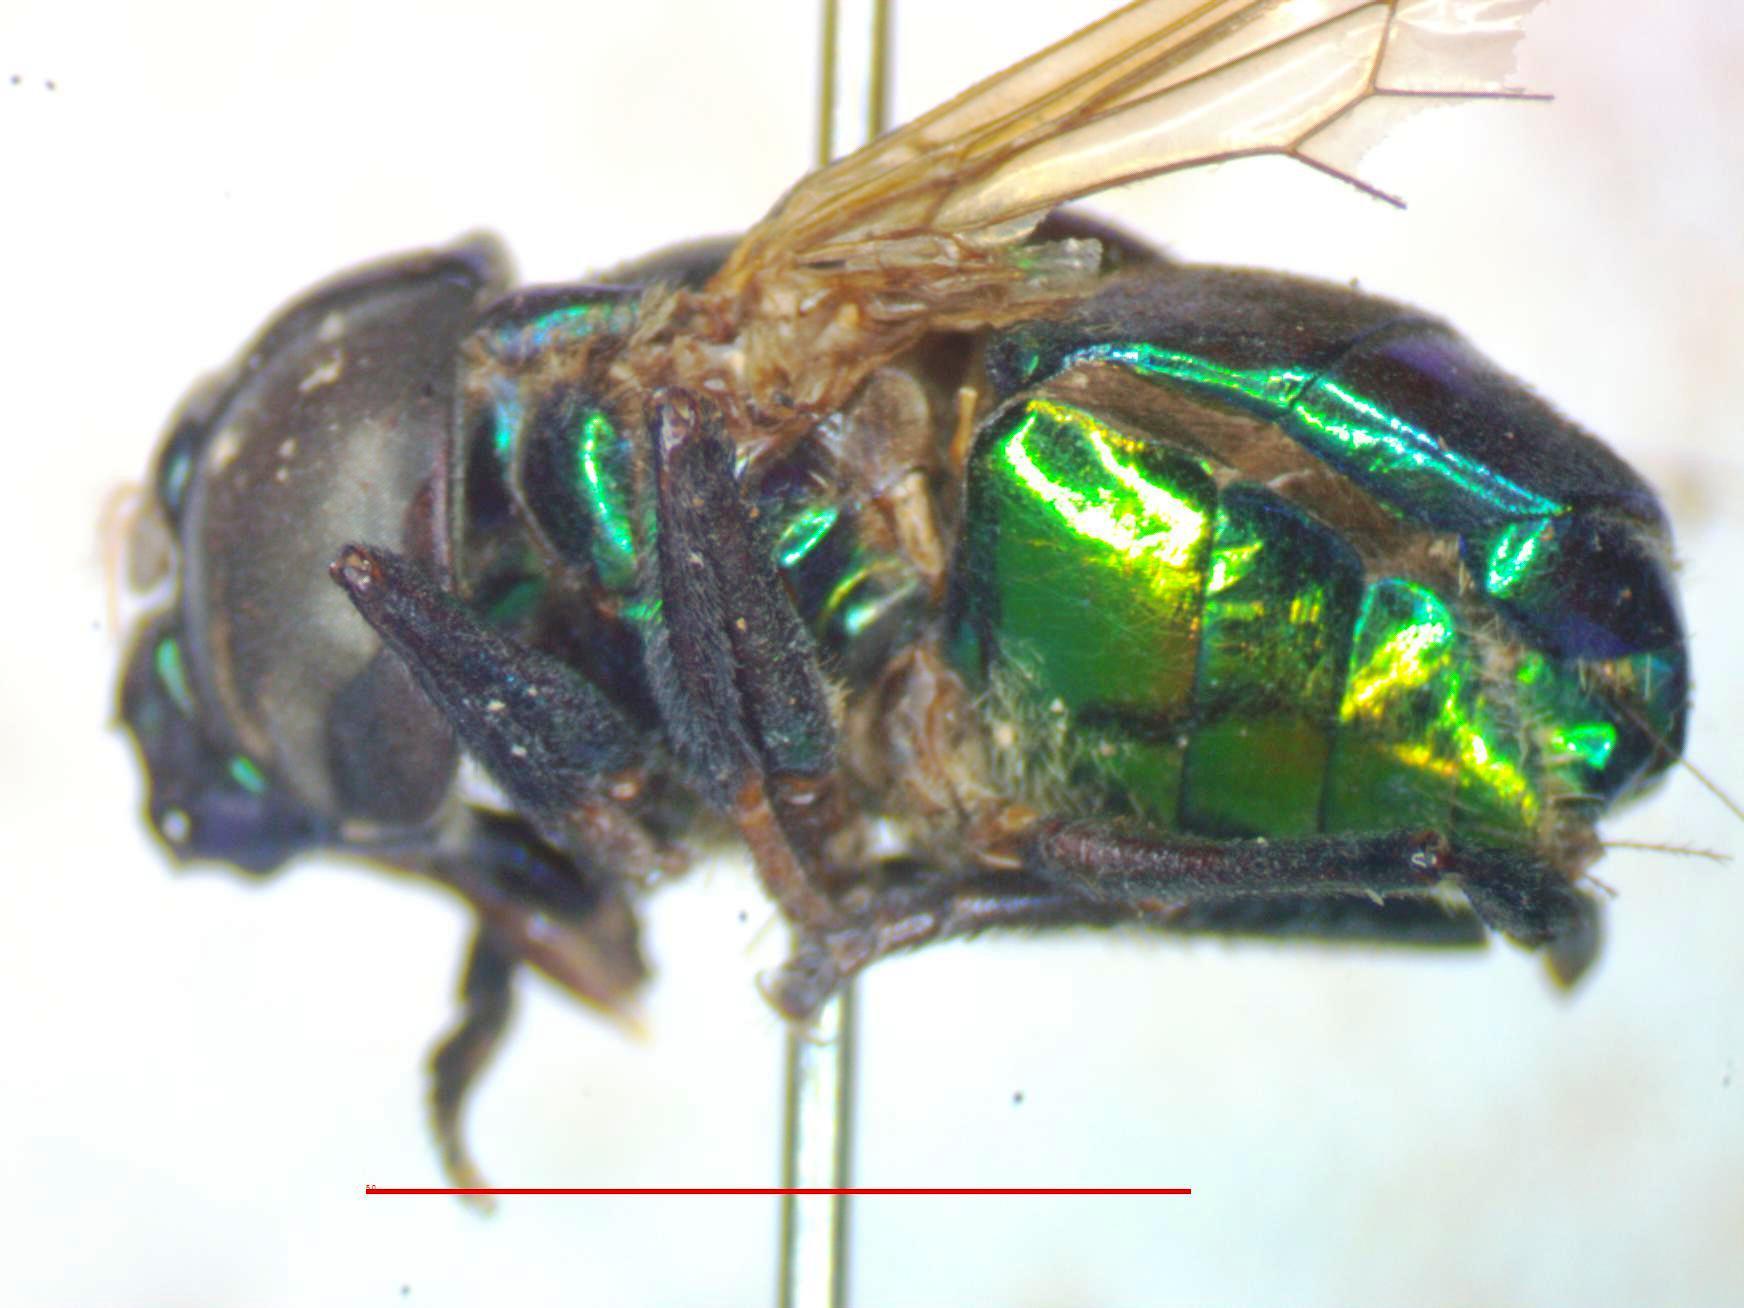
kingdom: Animalia
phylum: Arthropoda
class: Insecta
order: Diptera
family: Syrphidae
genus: Ornidia
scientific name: Ornidia obesa
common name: Syrphid fly
